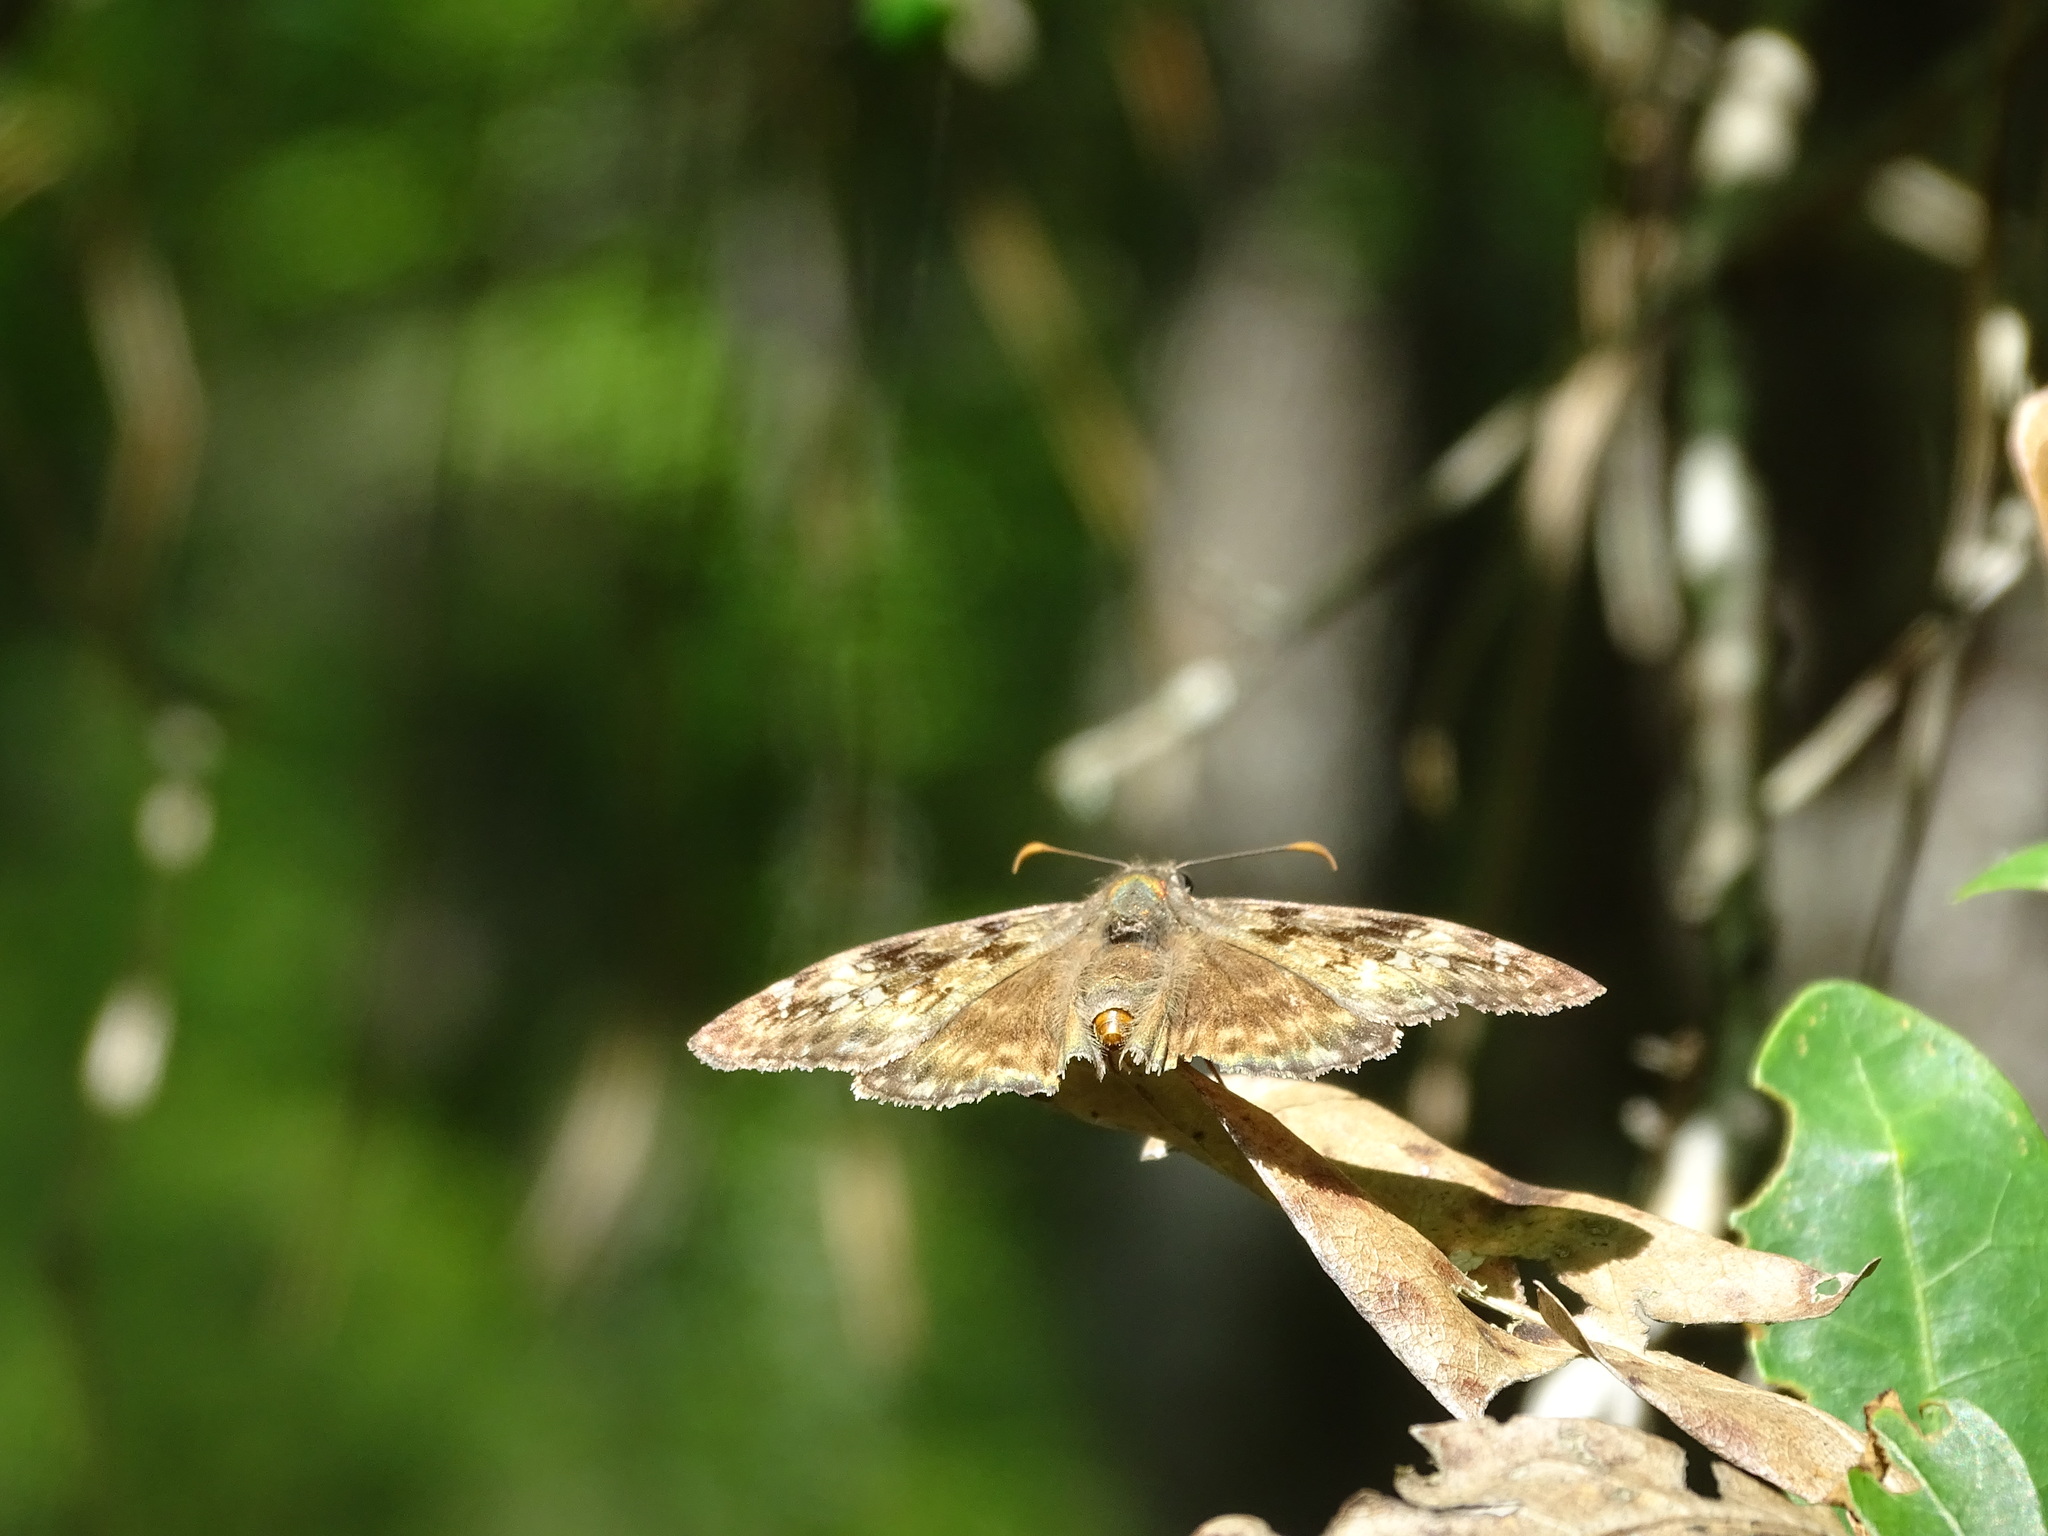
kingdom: Animalia
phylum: Arthropoda
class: Insecta
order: Lepidoptera
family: Hesperiidae
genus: Erynnis
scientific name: Erynnis horatius
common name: Horace's duskywing
